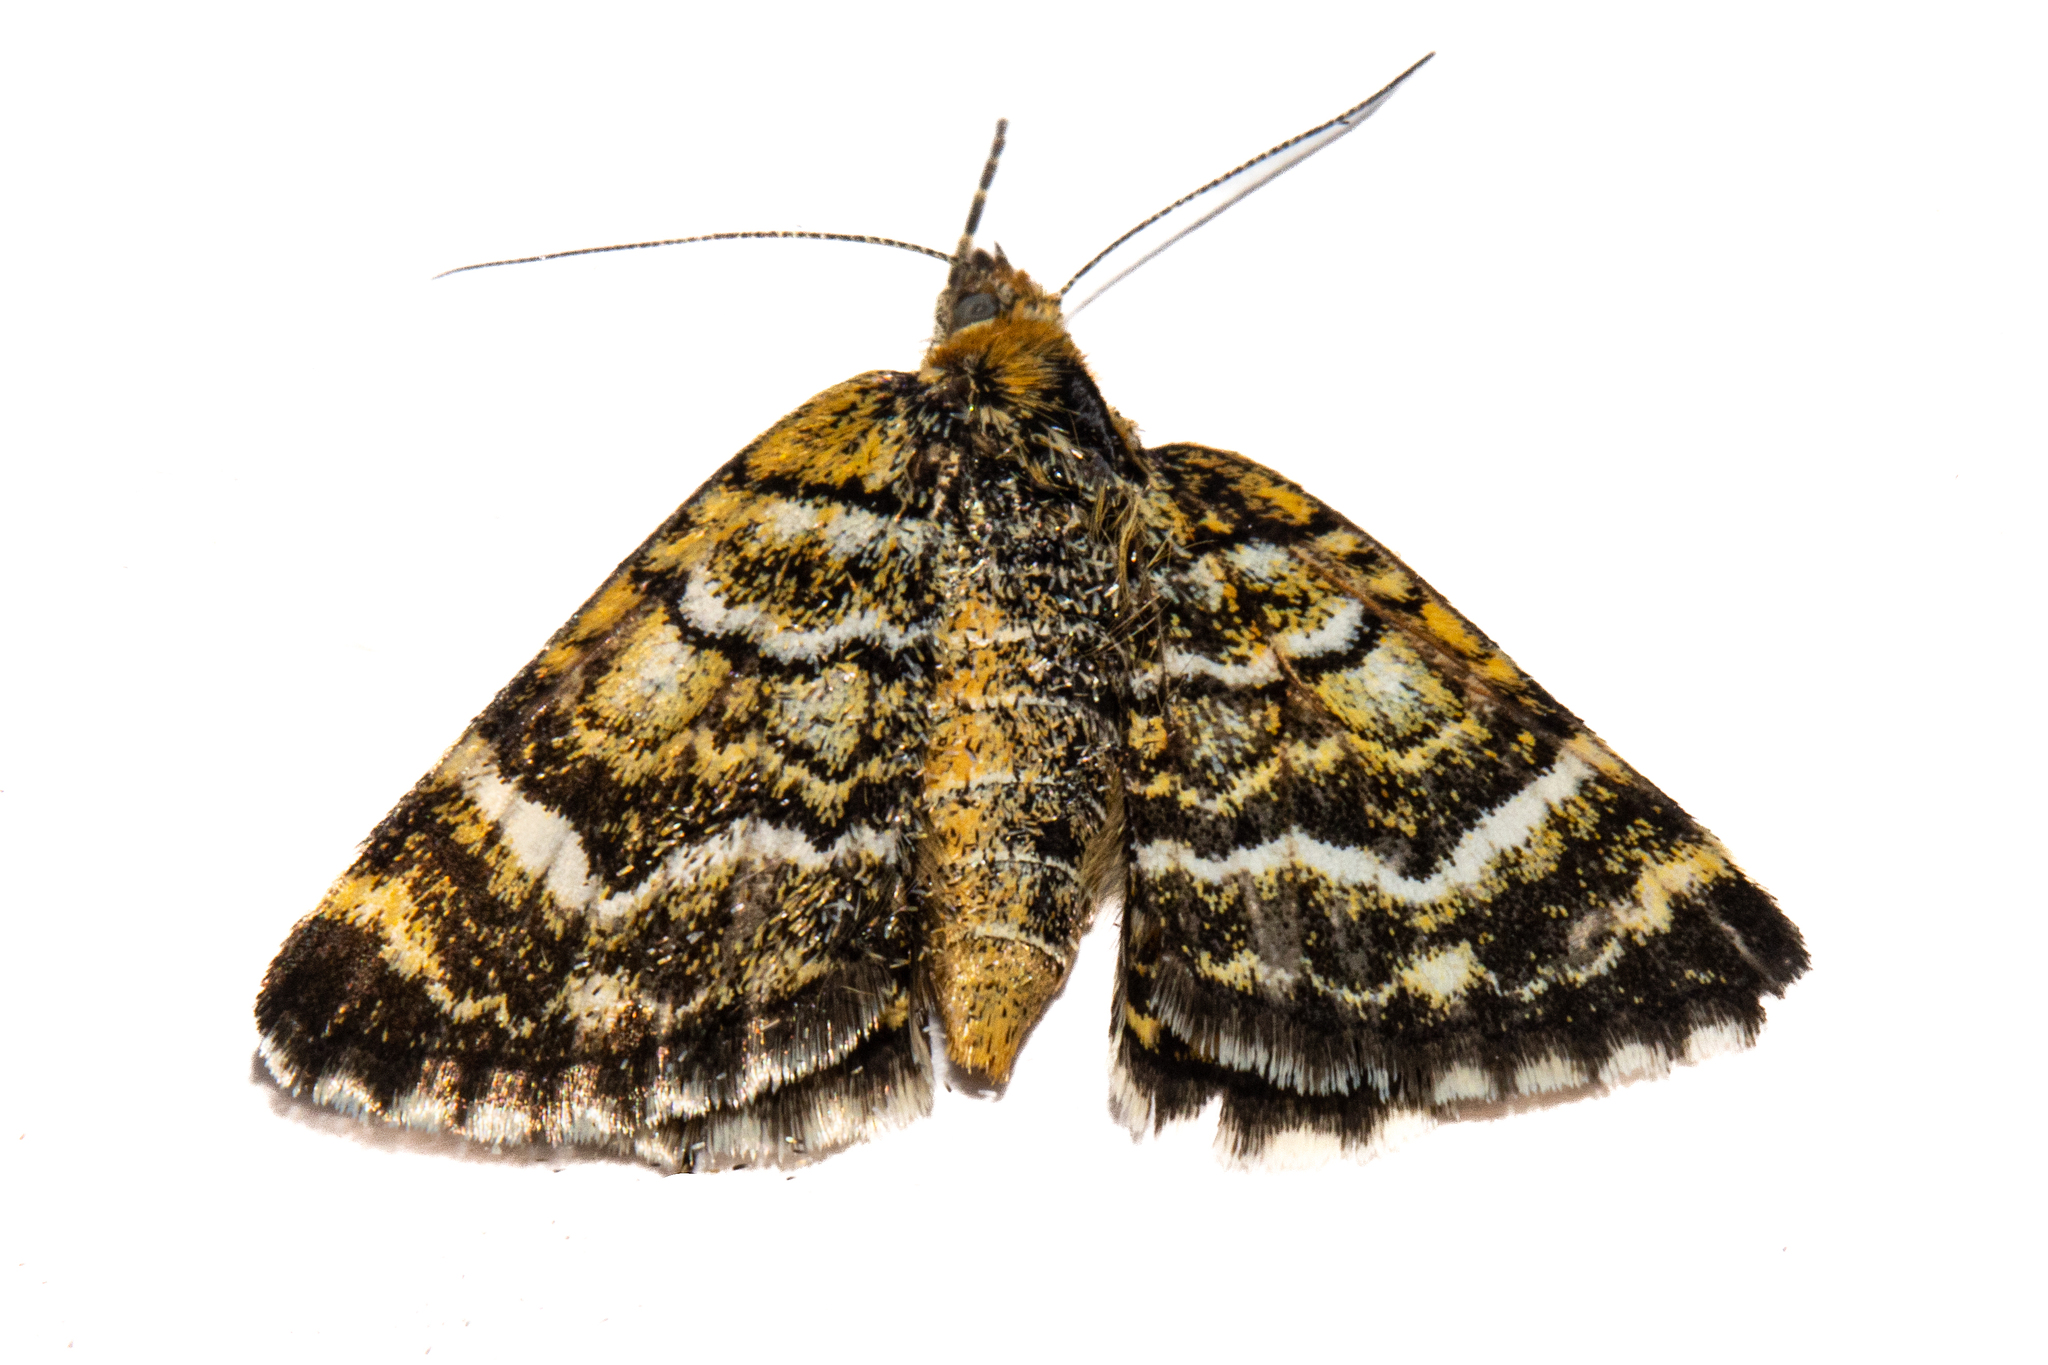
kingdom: Animalia
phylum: Arthropoda
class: Insecta
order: Lepidoptera
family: Geometridae
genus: Notoreas
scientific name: Notoreas paradelpha
